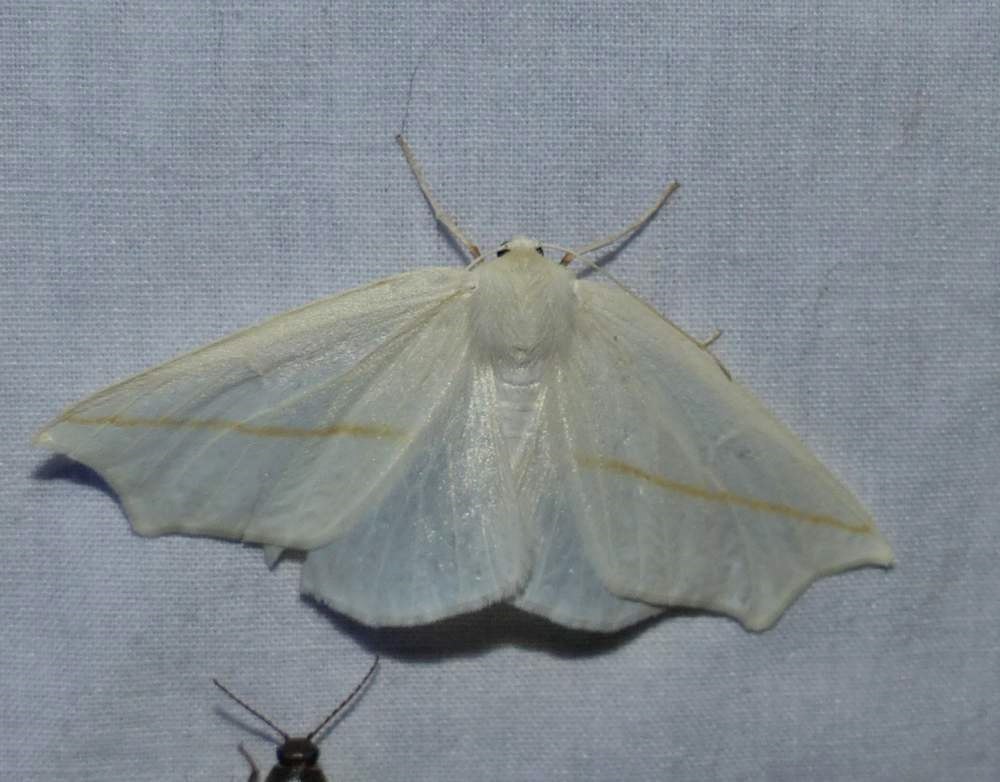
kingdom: Animalia
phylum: Arthropoda
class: Insecta
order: Lepidoptera
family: Geometridae
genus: Tetracis
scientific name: Tetracis cachexiata
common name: White slant-line
